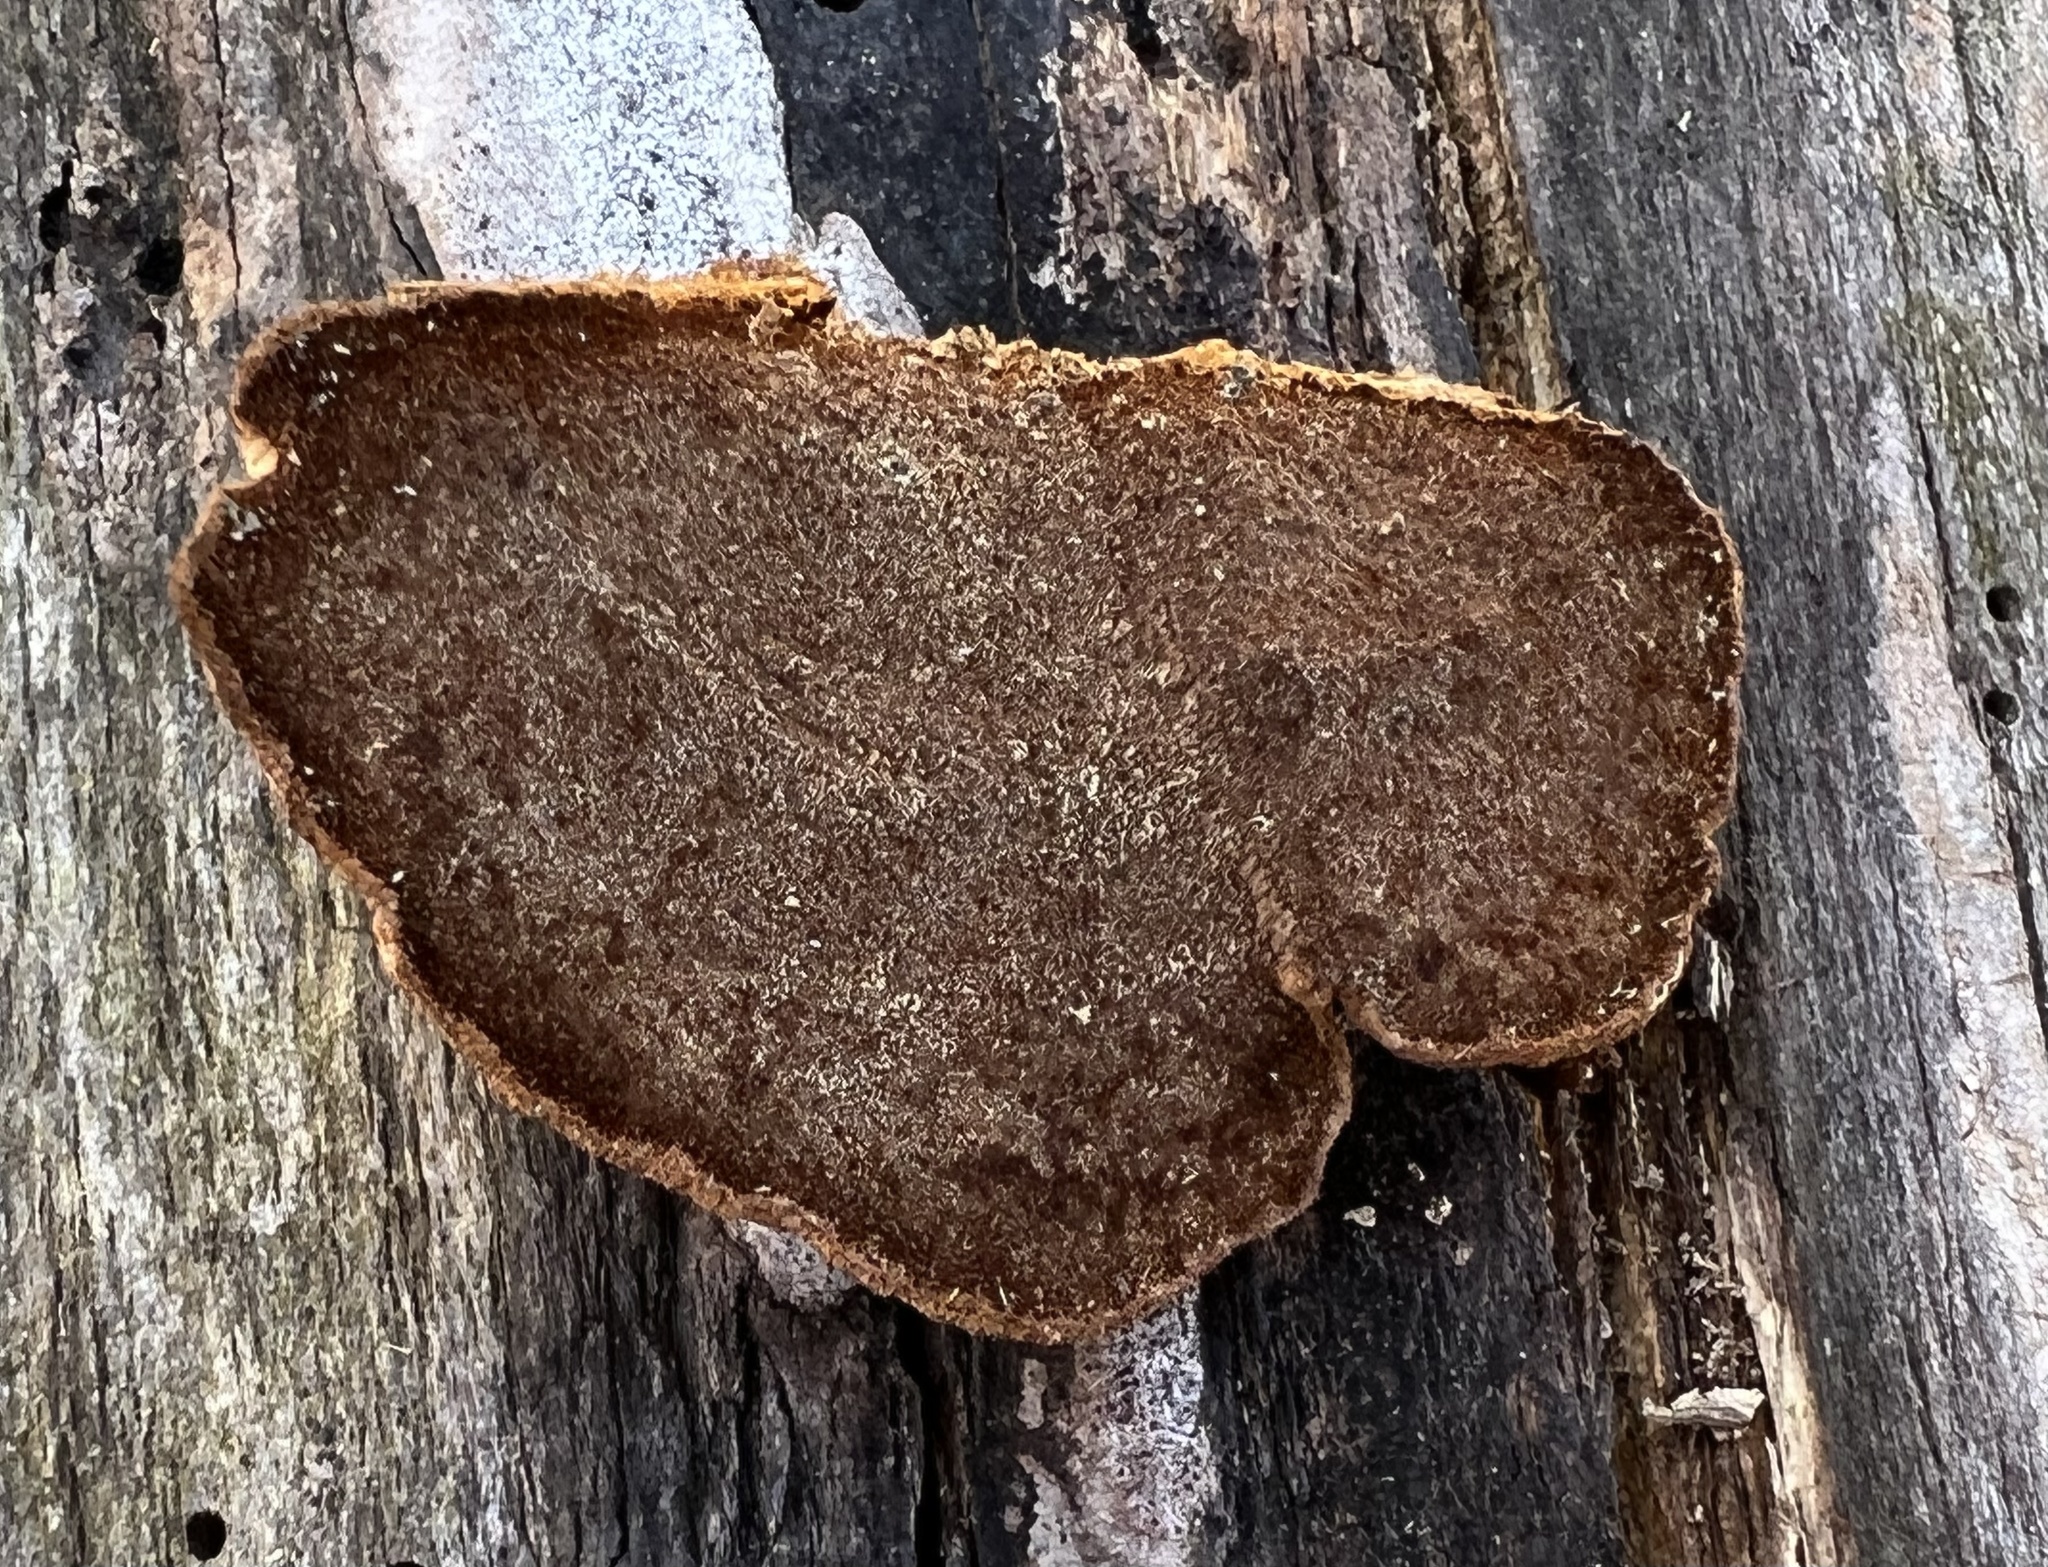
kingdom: Fungi
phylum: Basidiomycota
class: Agaricomycetes
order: Hymenochaetales
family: Hymenochaetaceae
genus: Phellinus
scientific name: Phellinus gilvus
